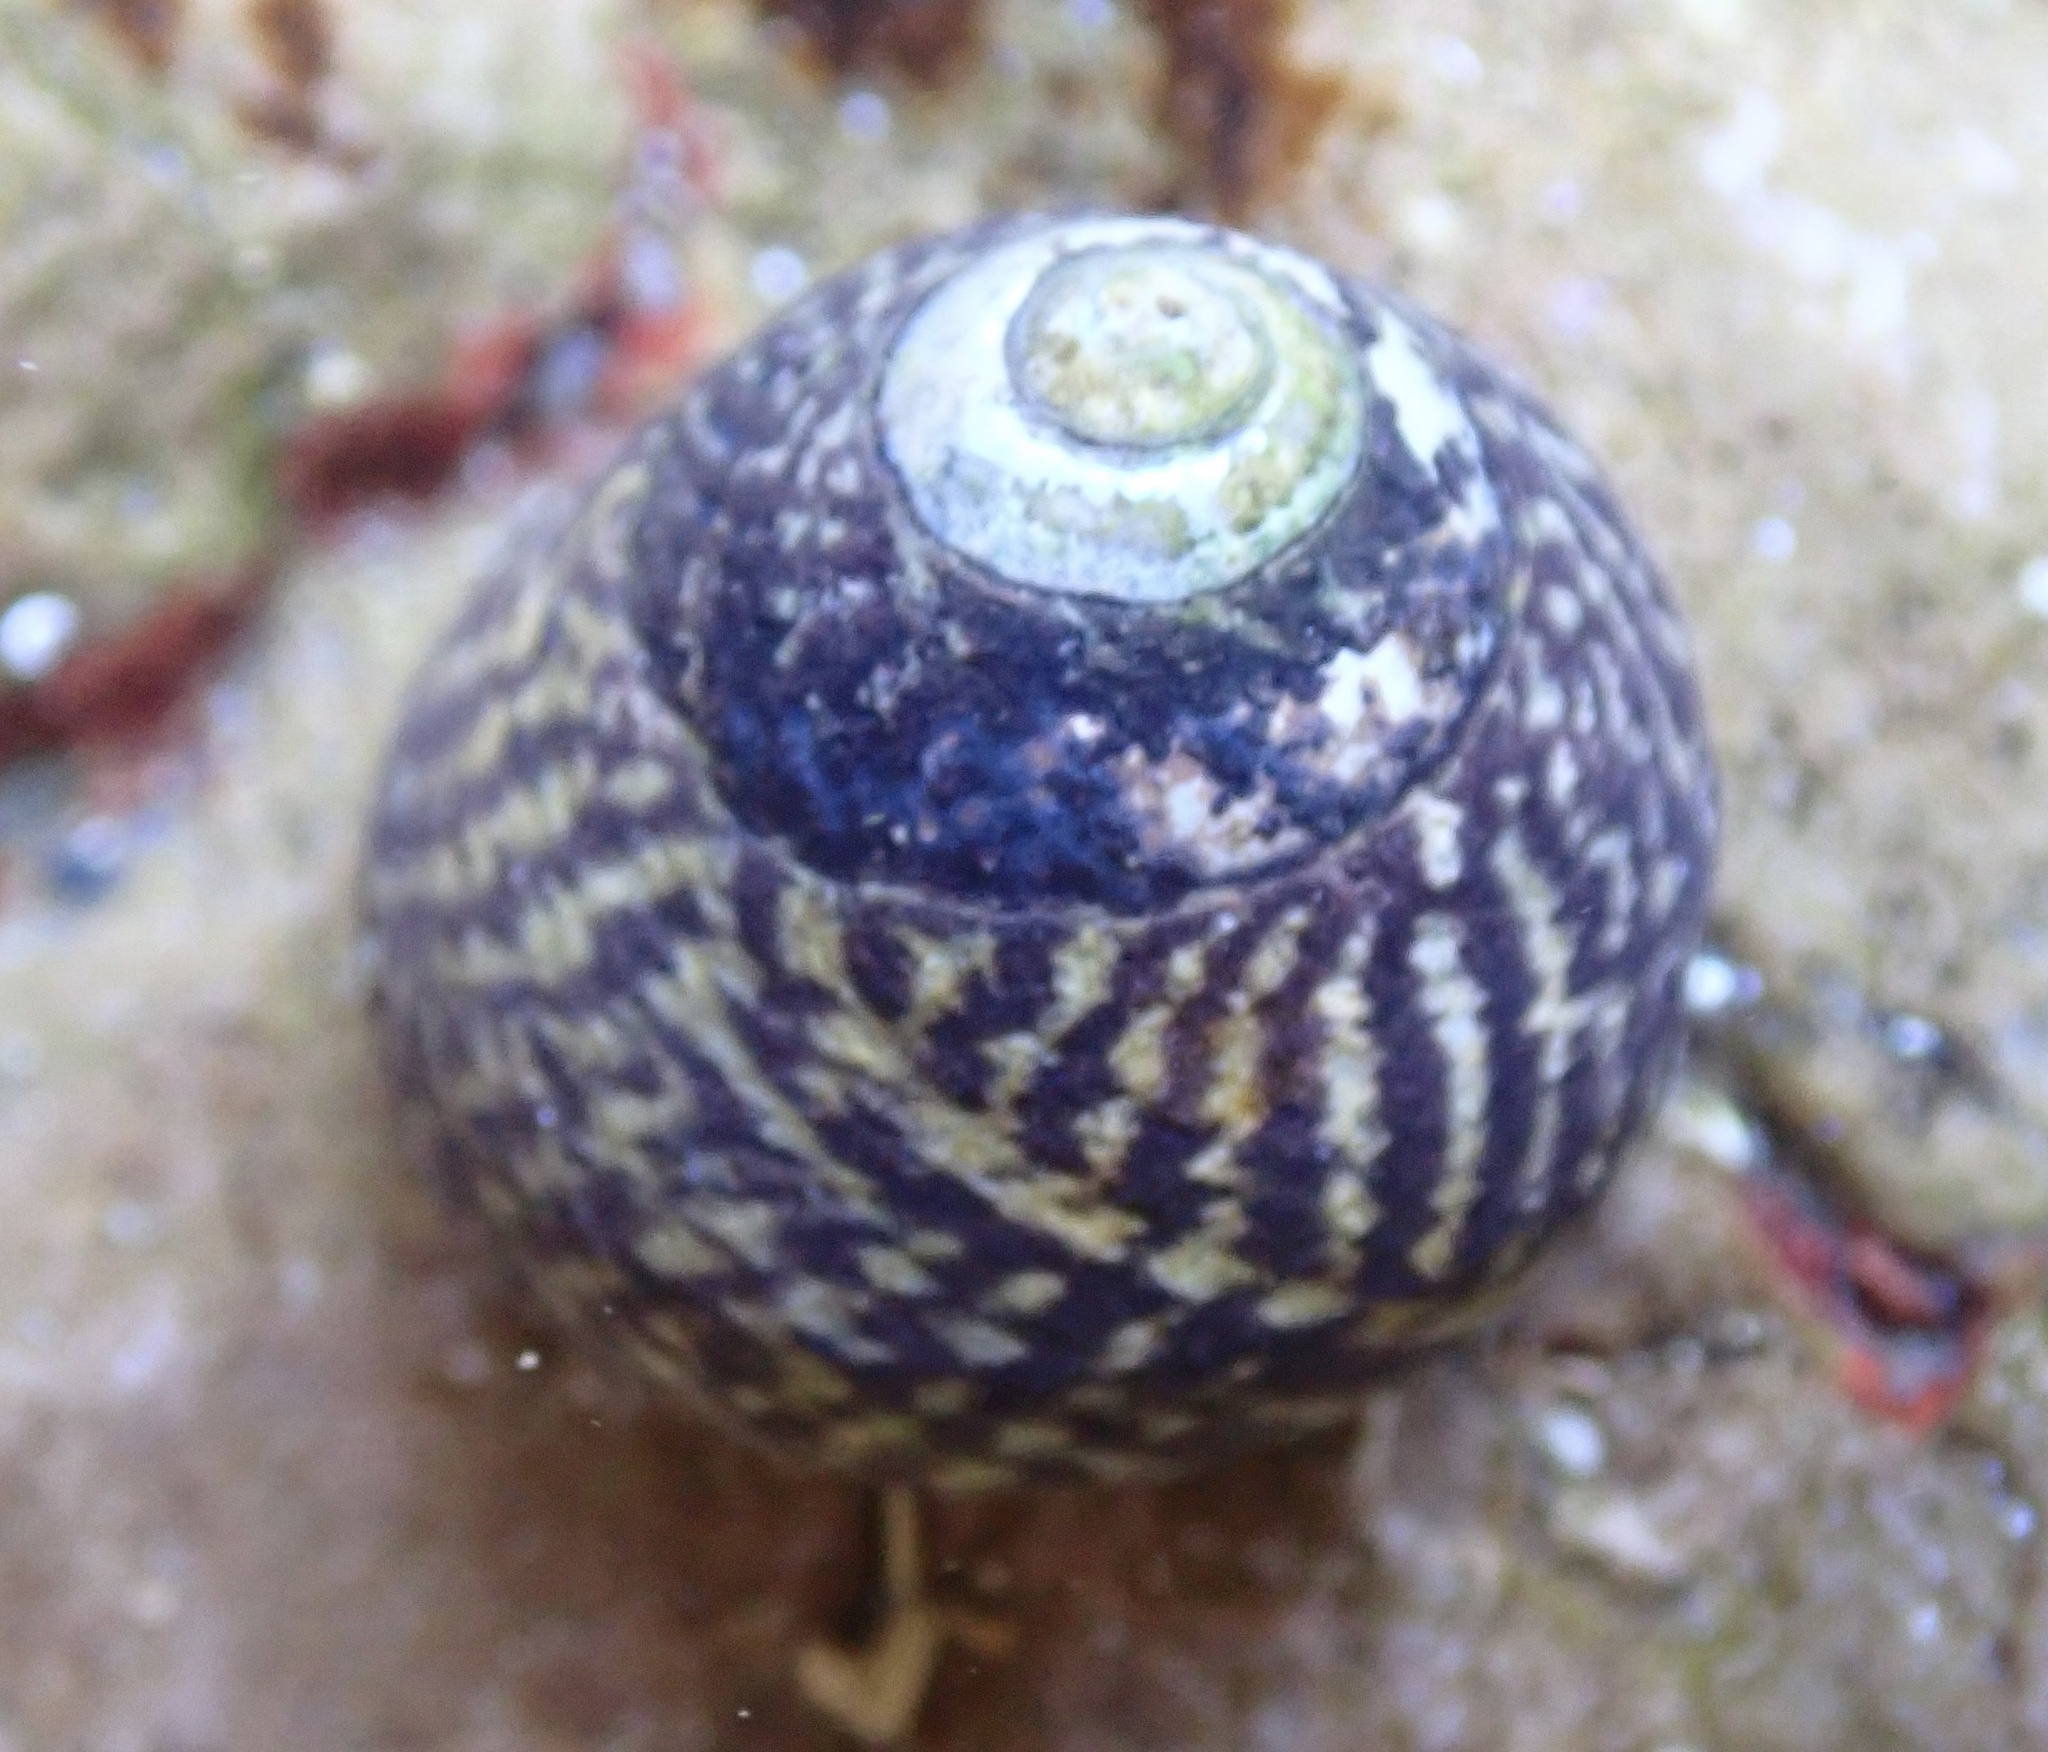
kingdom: Animalia
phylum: Mollusca
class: Gastropoda
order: Trochida
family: Tegulidae
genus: Tegula
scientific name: Tegula gallina
